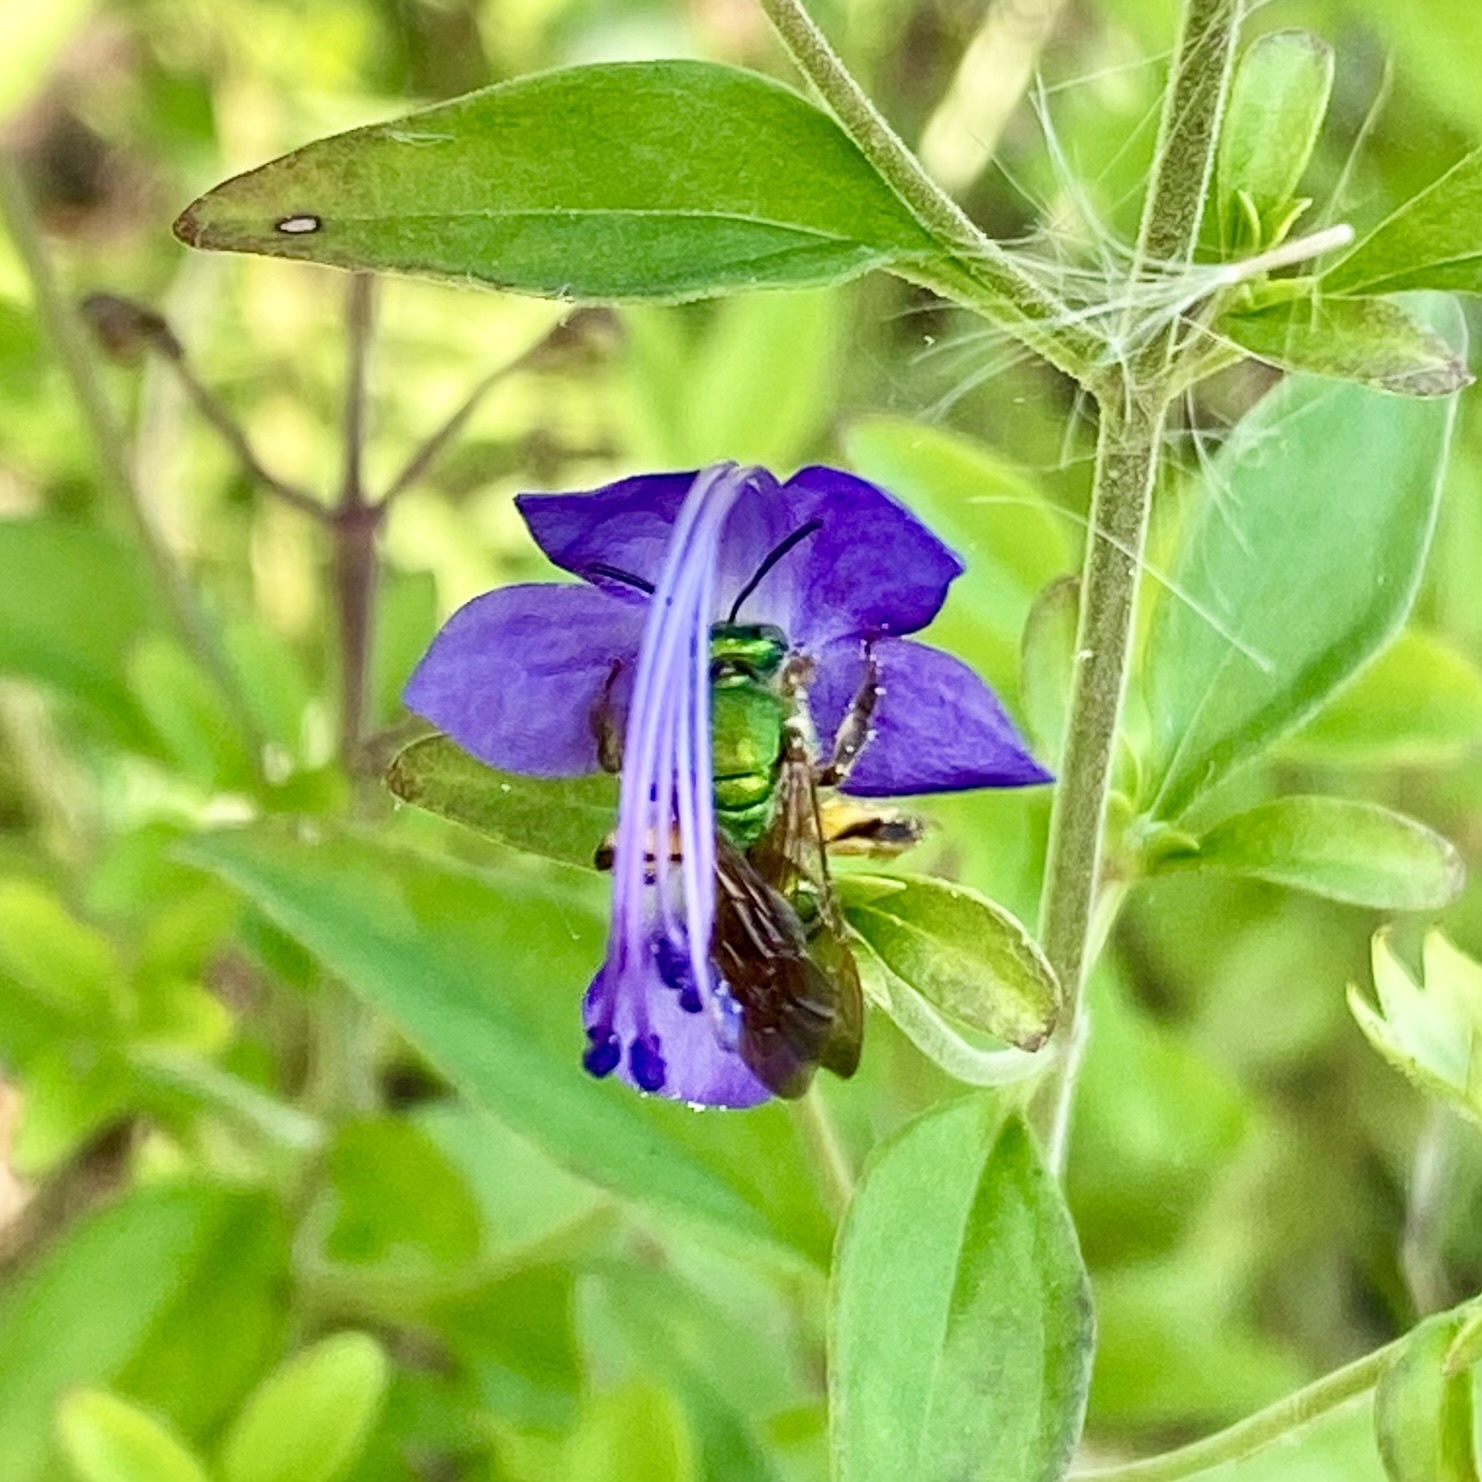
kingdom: Animalia
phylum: Arthropoda
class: Insecta
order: Hymenoptera
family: Halictidae
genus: Agapostemon
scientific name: Agapostemon splendens
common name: Brown-winged striped sweat bee
